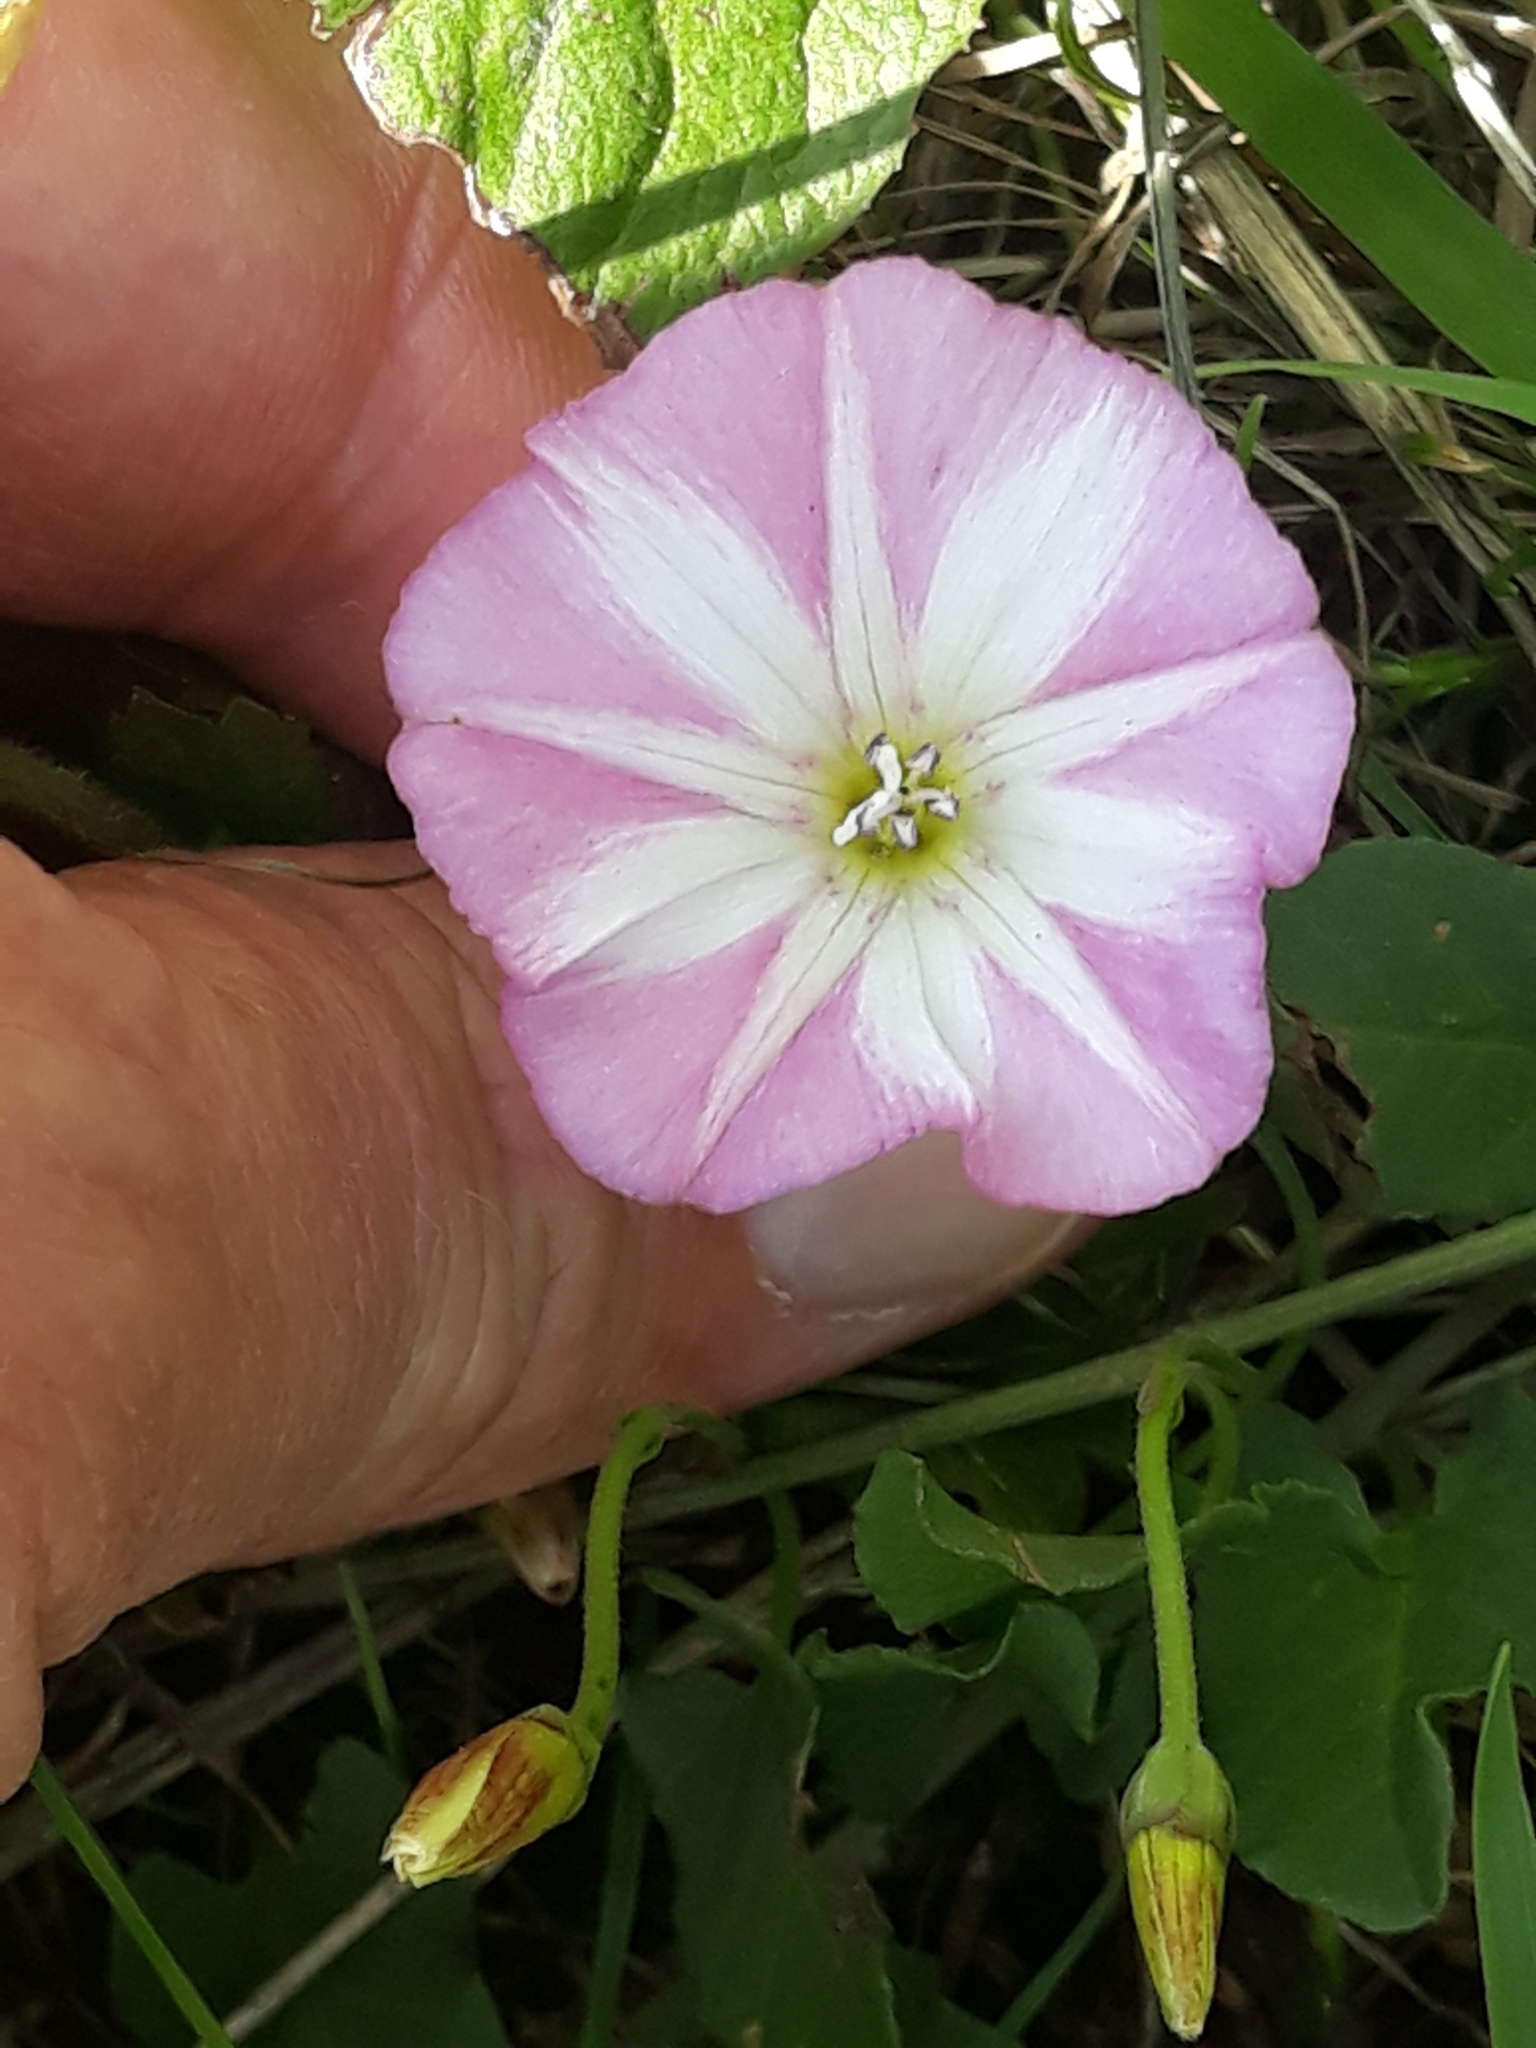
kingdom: Plantae
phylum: Tracheophyta
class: Magnoliopsida
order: Solanales
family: Convolvulaceae
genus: Convolvulus
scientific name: Convolvulus arvensis
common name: Field bindweed
